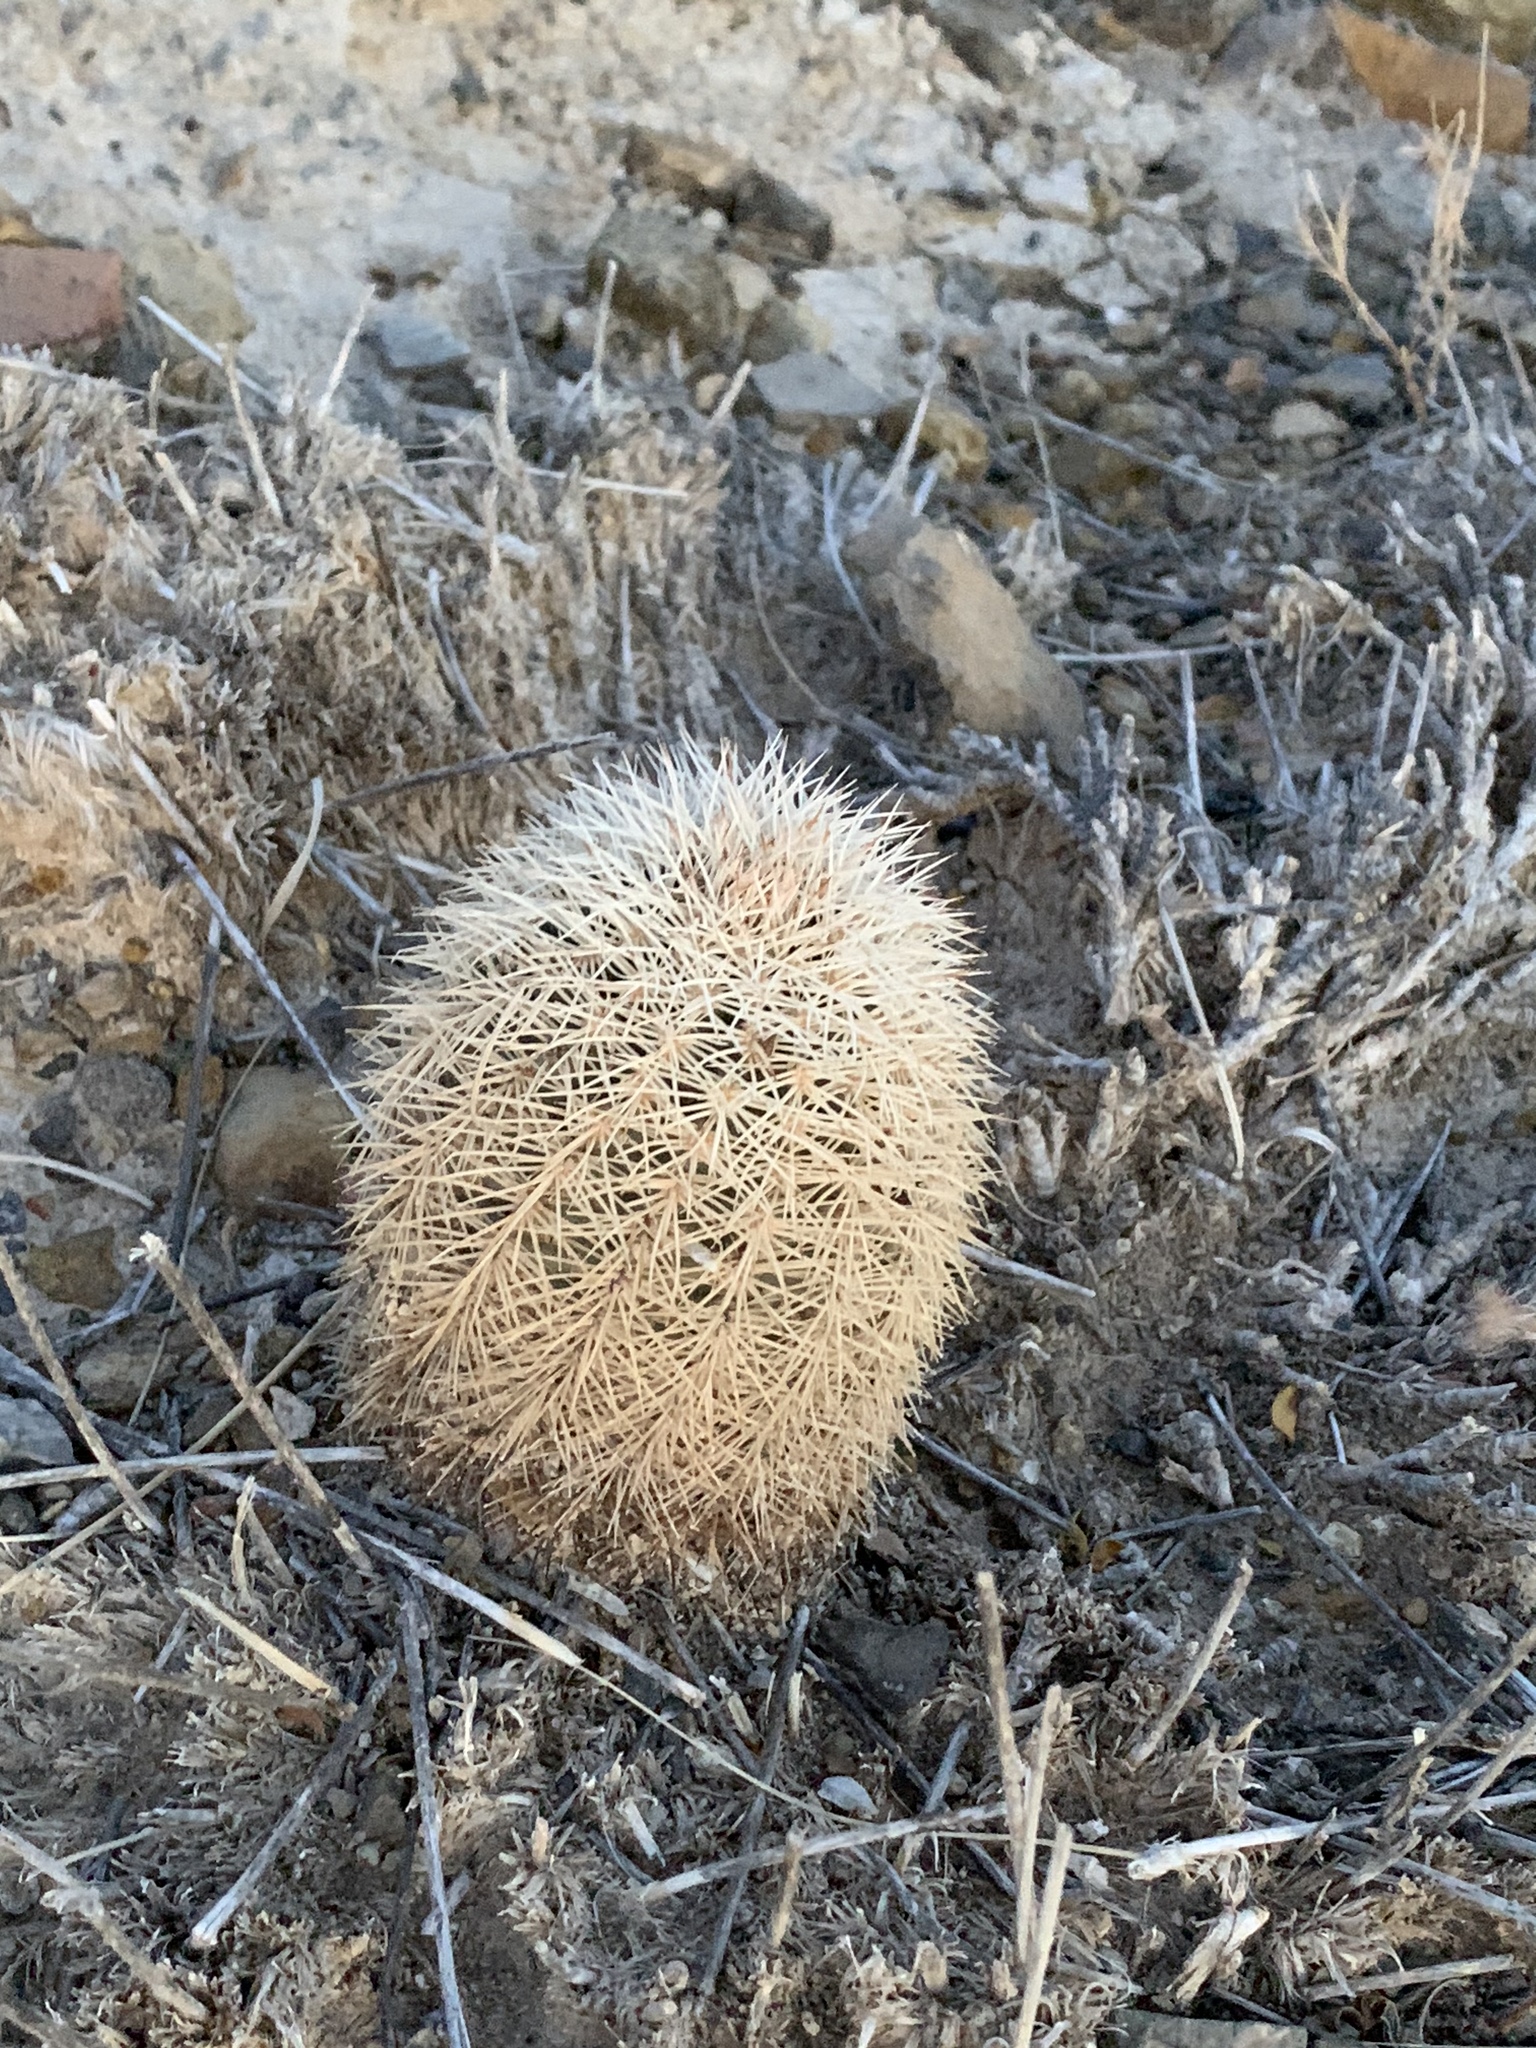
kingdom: Plantae
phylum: Tracheophyta
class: Magnoliopsida
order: Caryophyllales
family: Cactaceae
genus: Echinocereus
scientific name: Echinocereus dasyacanthus
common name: Spiny hedgehog cactus
